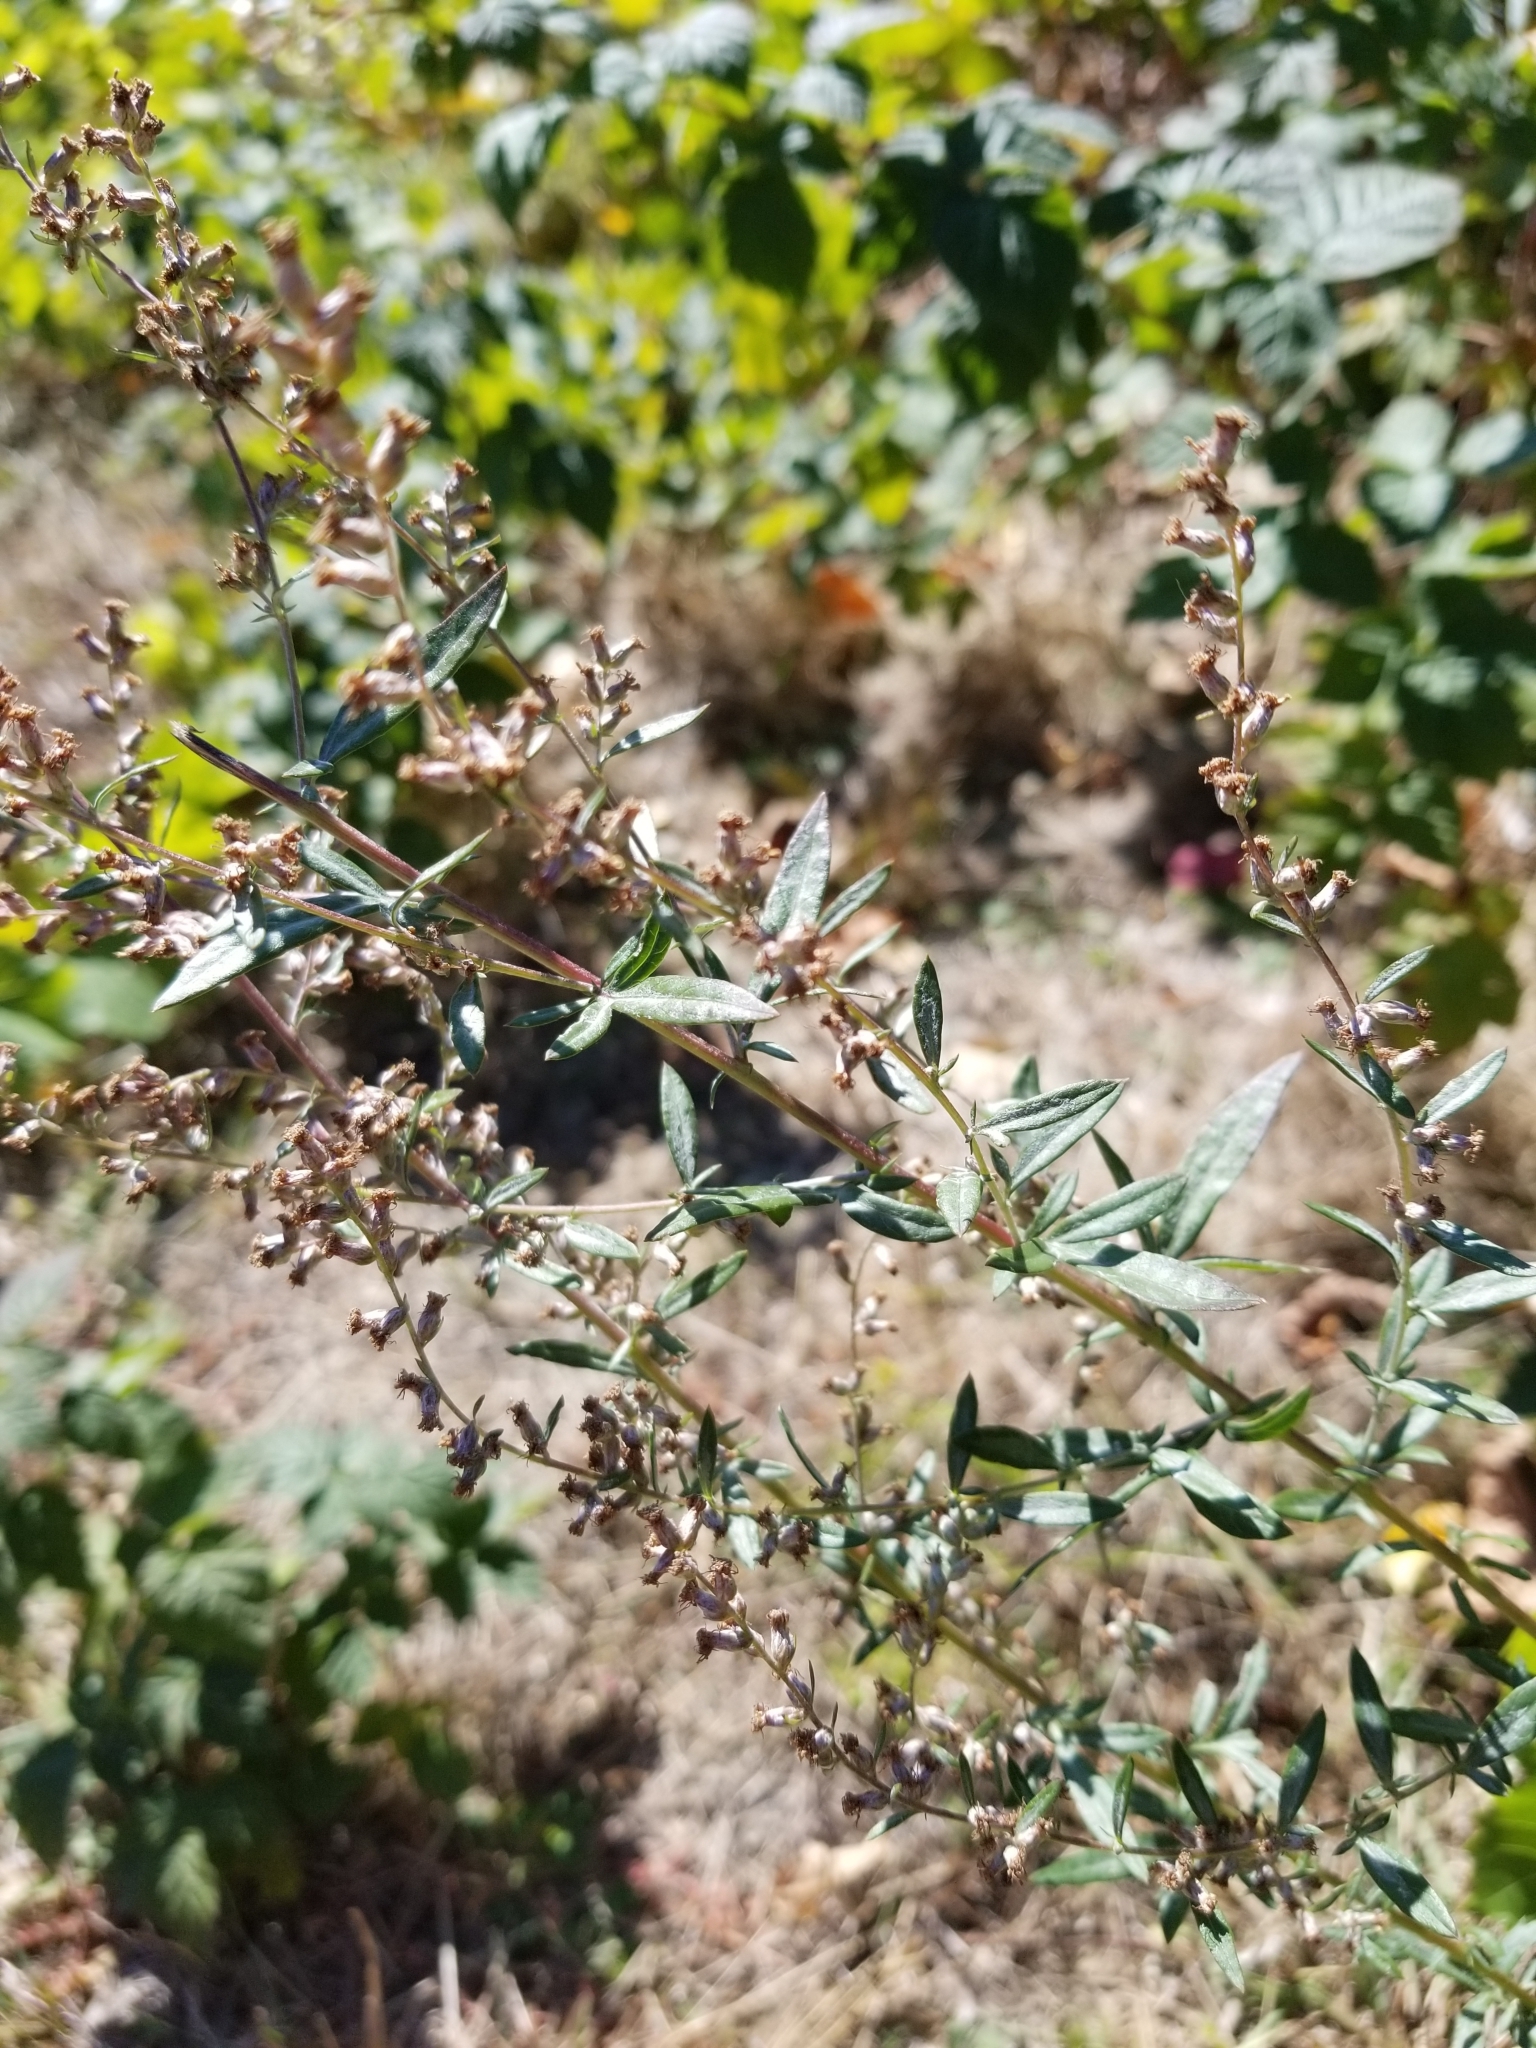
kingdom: Plantae
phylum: Tracheophyta
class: Magnoliopsida
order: Asterales
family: Asteraceae
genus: Artemisia
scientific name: Artemisia vulgaris
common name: Mugwort
